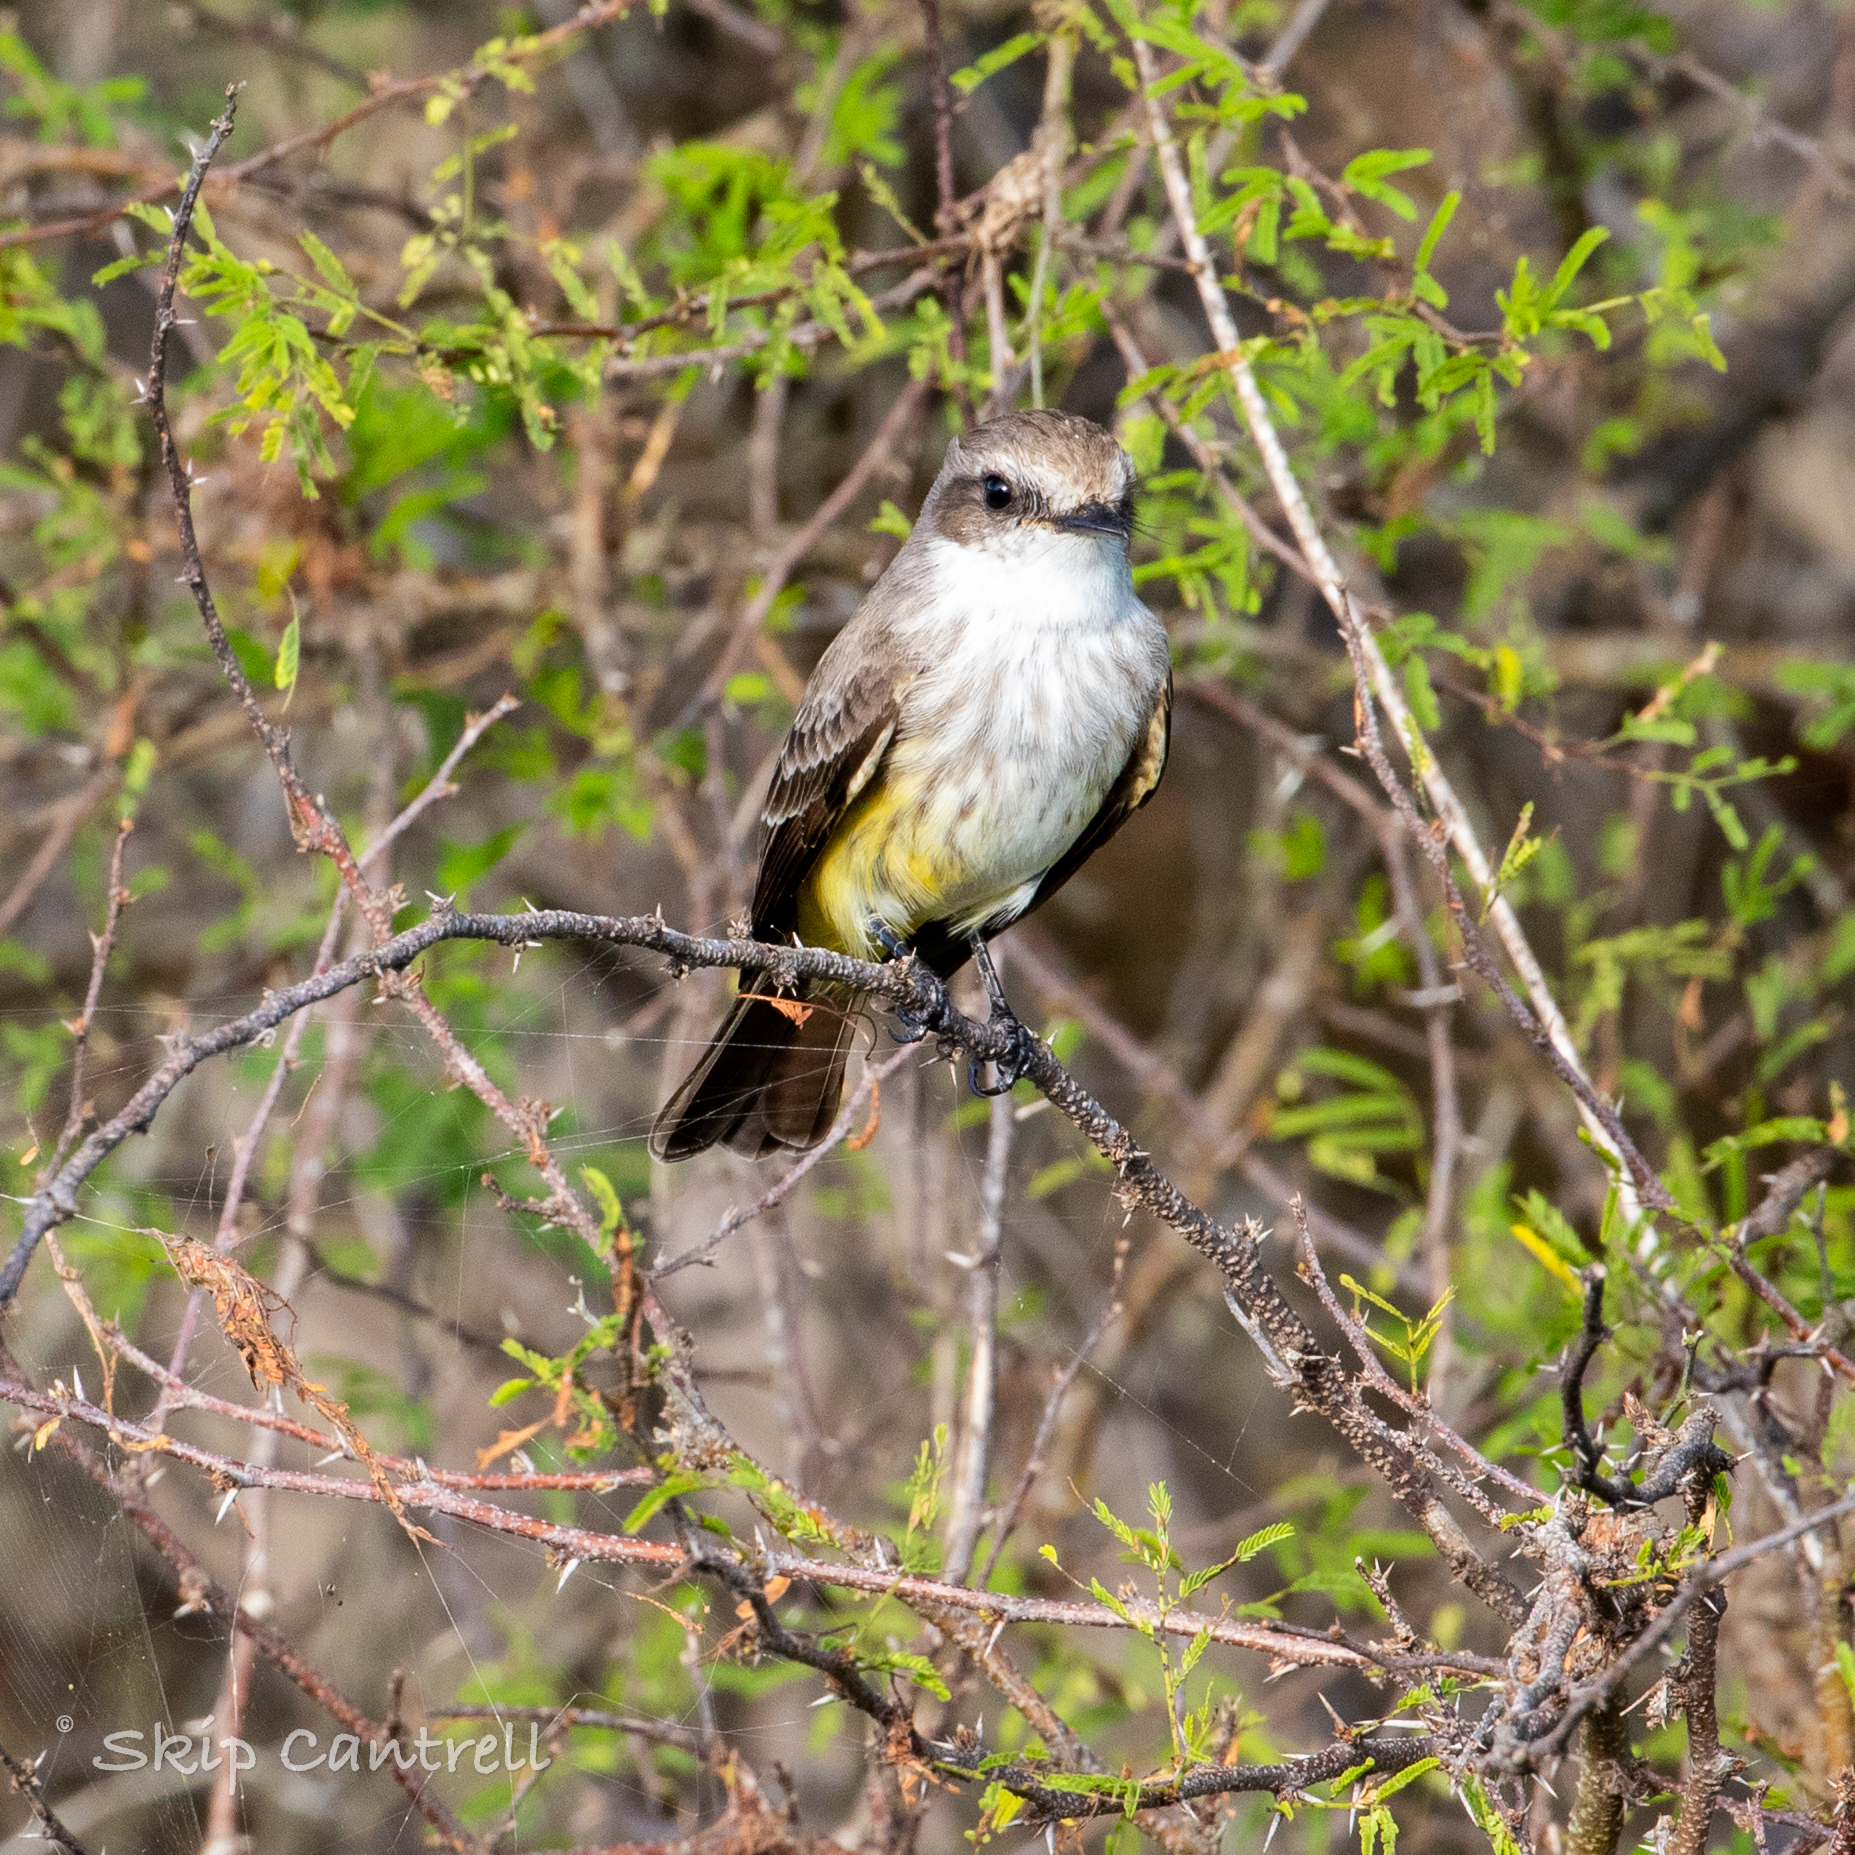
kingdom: Animalia
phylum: Chordata
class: Aves
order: Passeriformes
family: Tyrannidae
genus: Pyrocephalus
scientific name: Pyrocephalus rubinus
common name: Vermilion flycatcher
